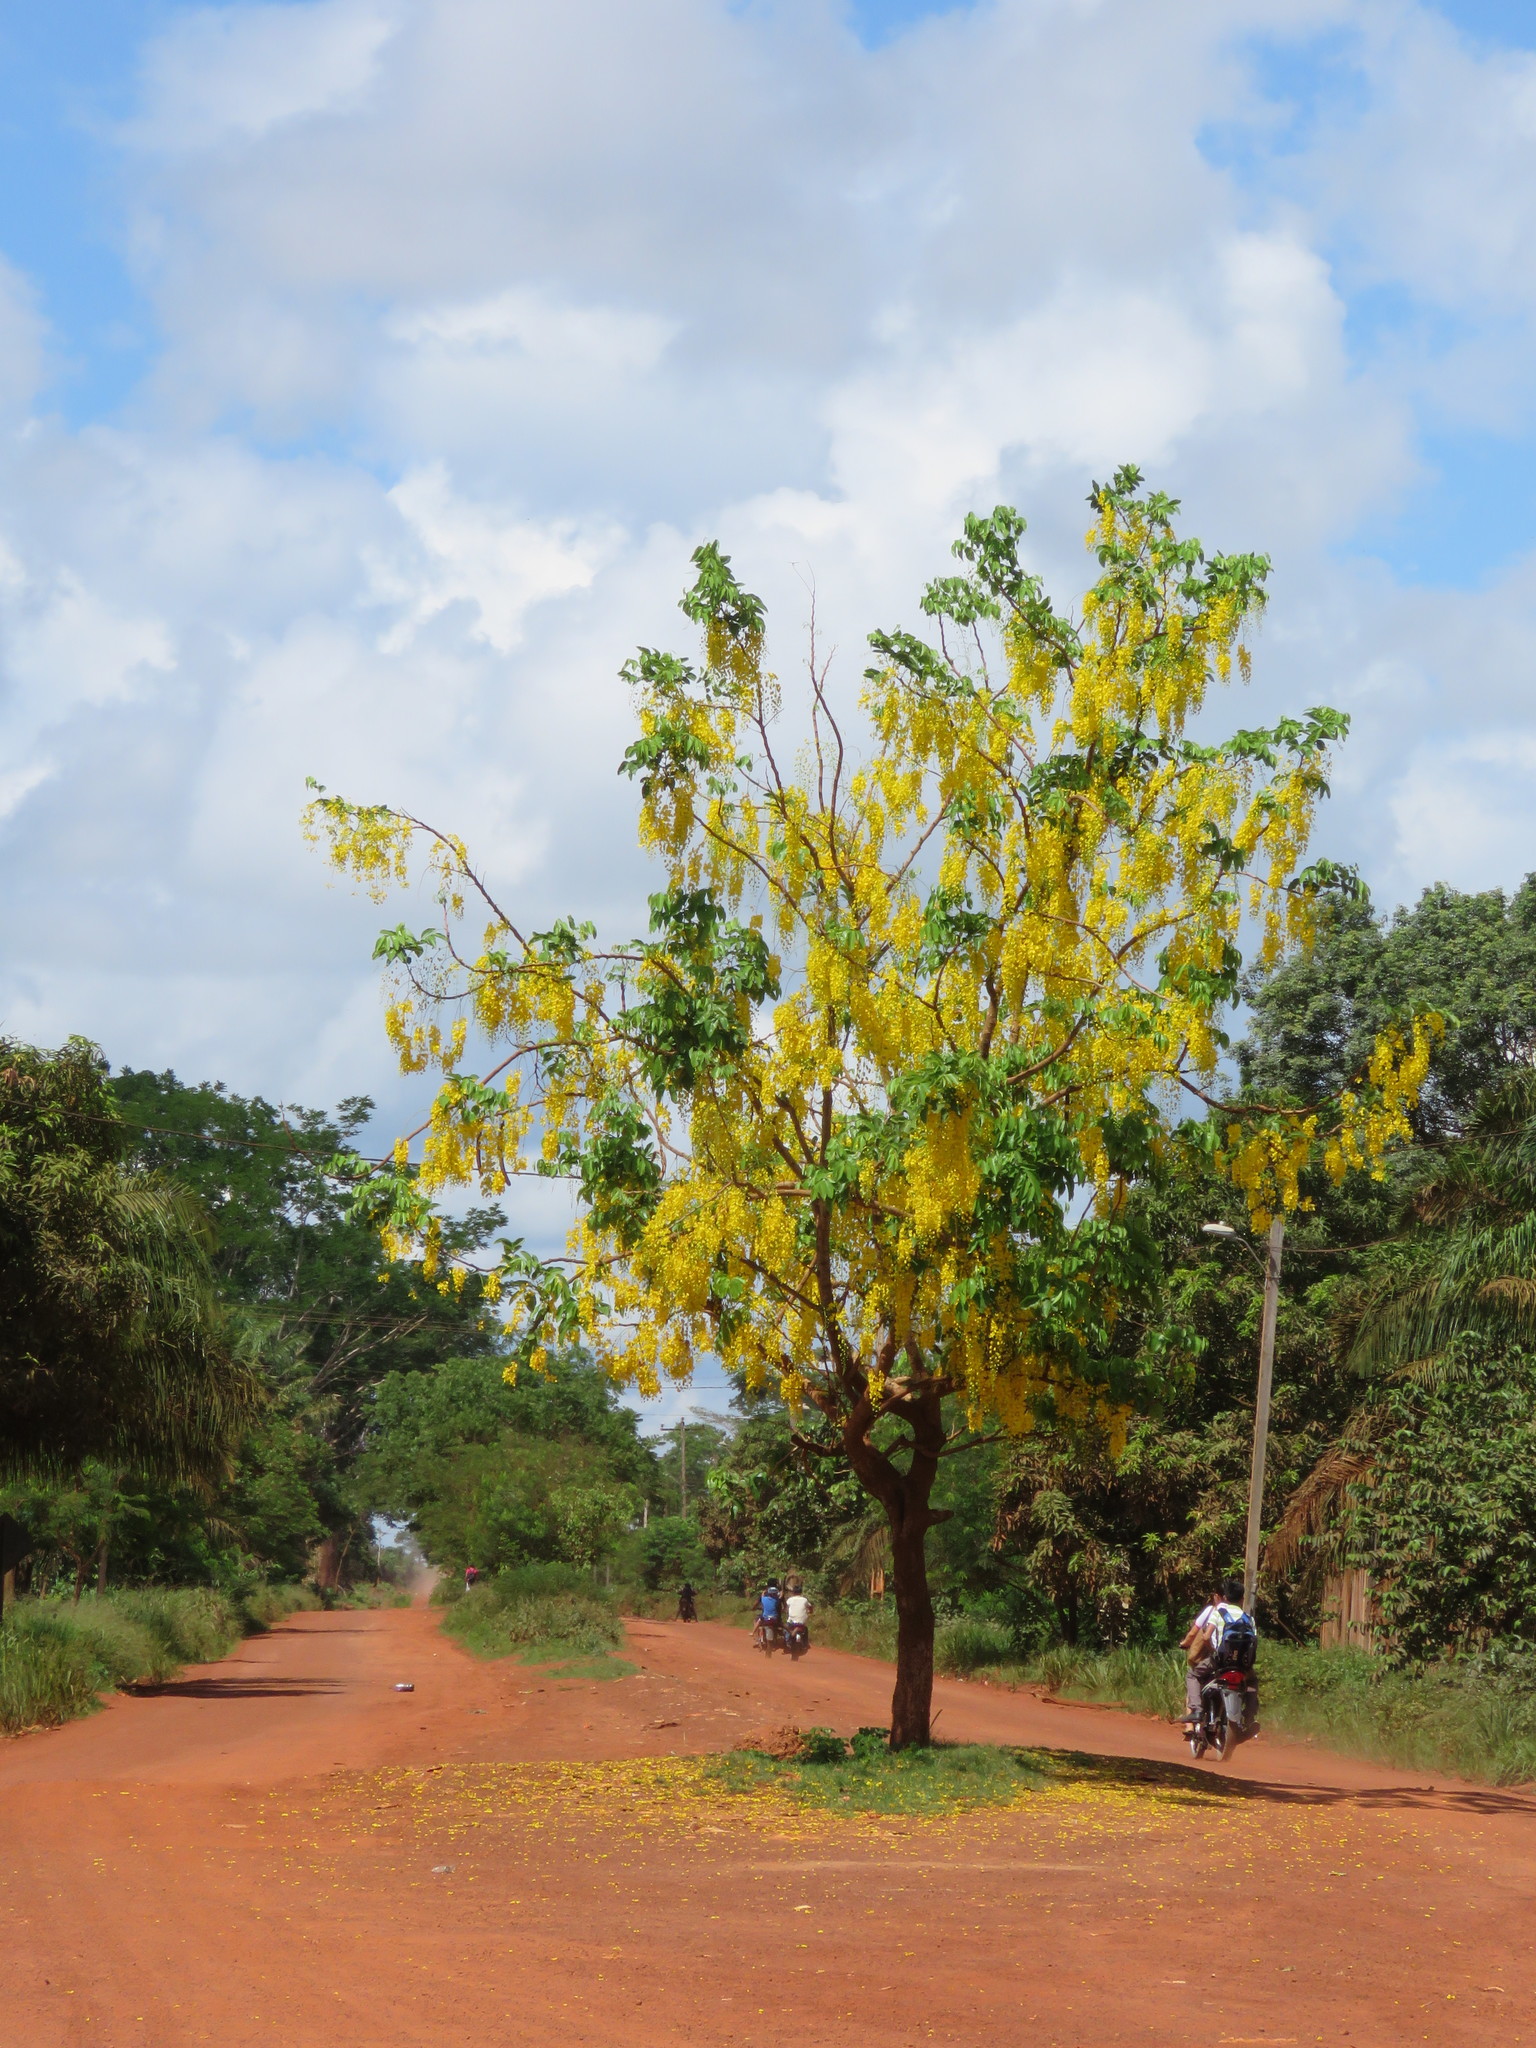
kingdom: Plantae
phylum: Tracheophyta
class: Magnoliopsida
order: Fabales
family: Fabaceae
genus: Cassia
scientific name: Cassia fistula
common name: Golden shower
